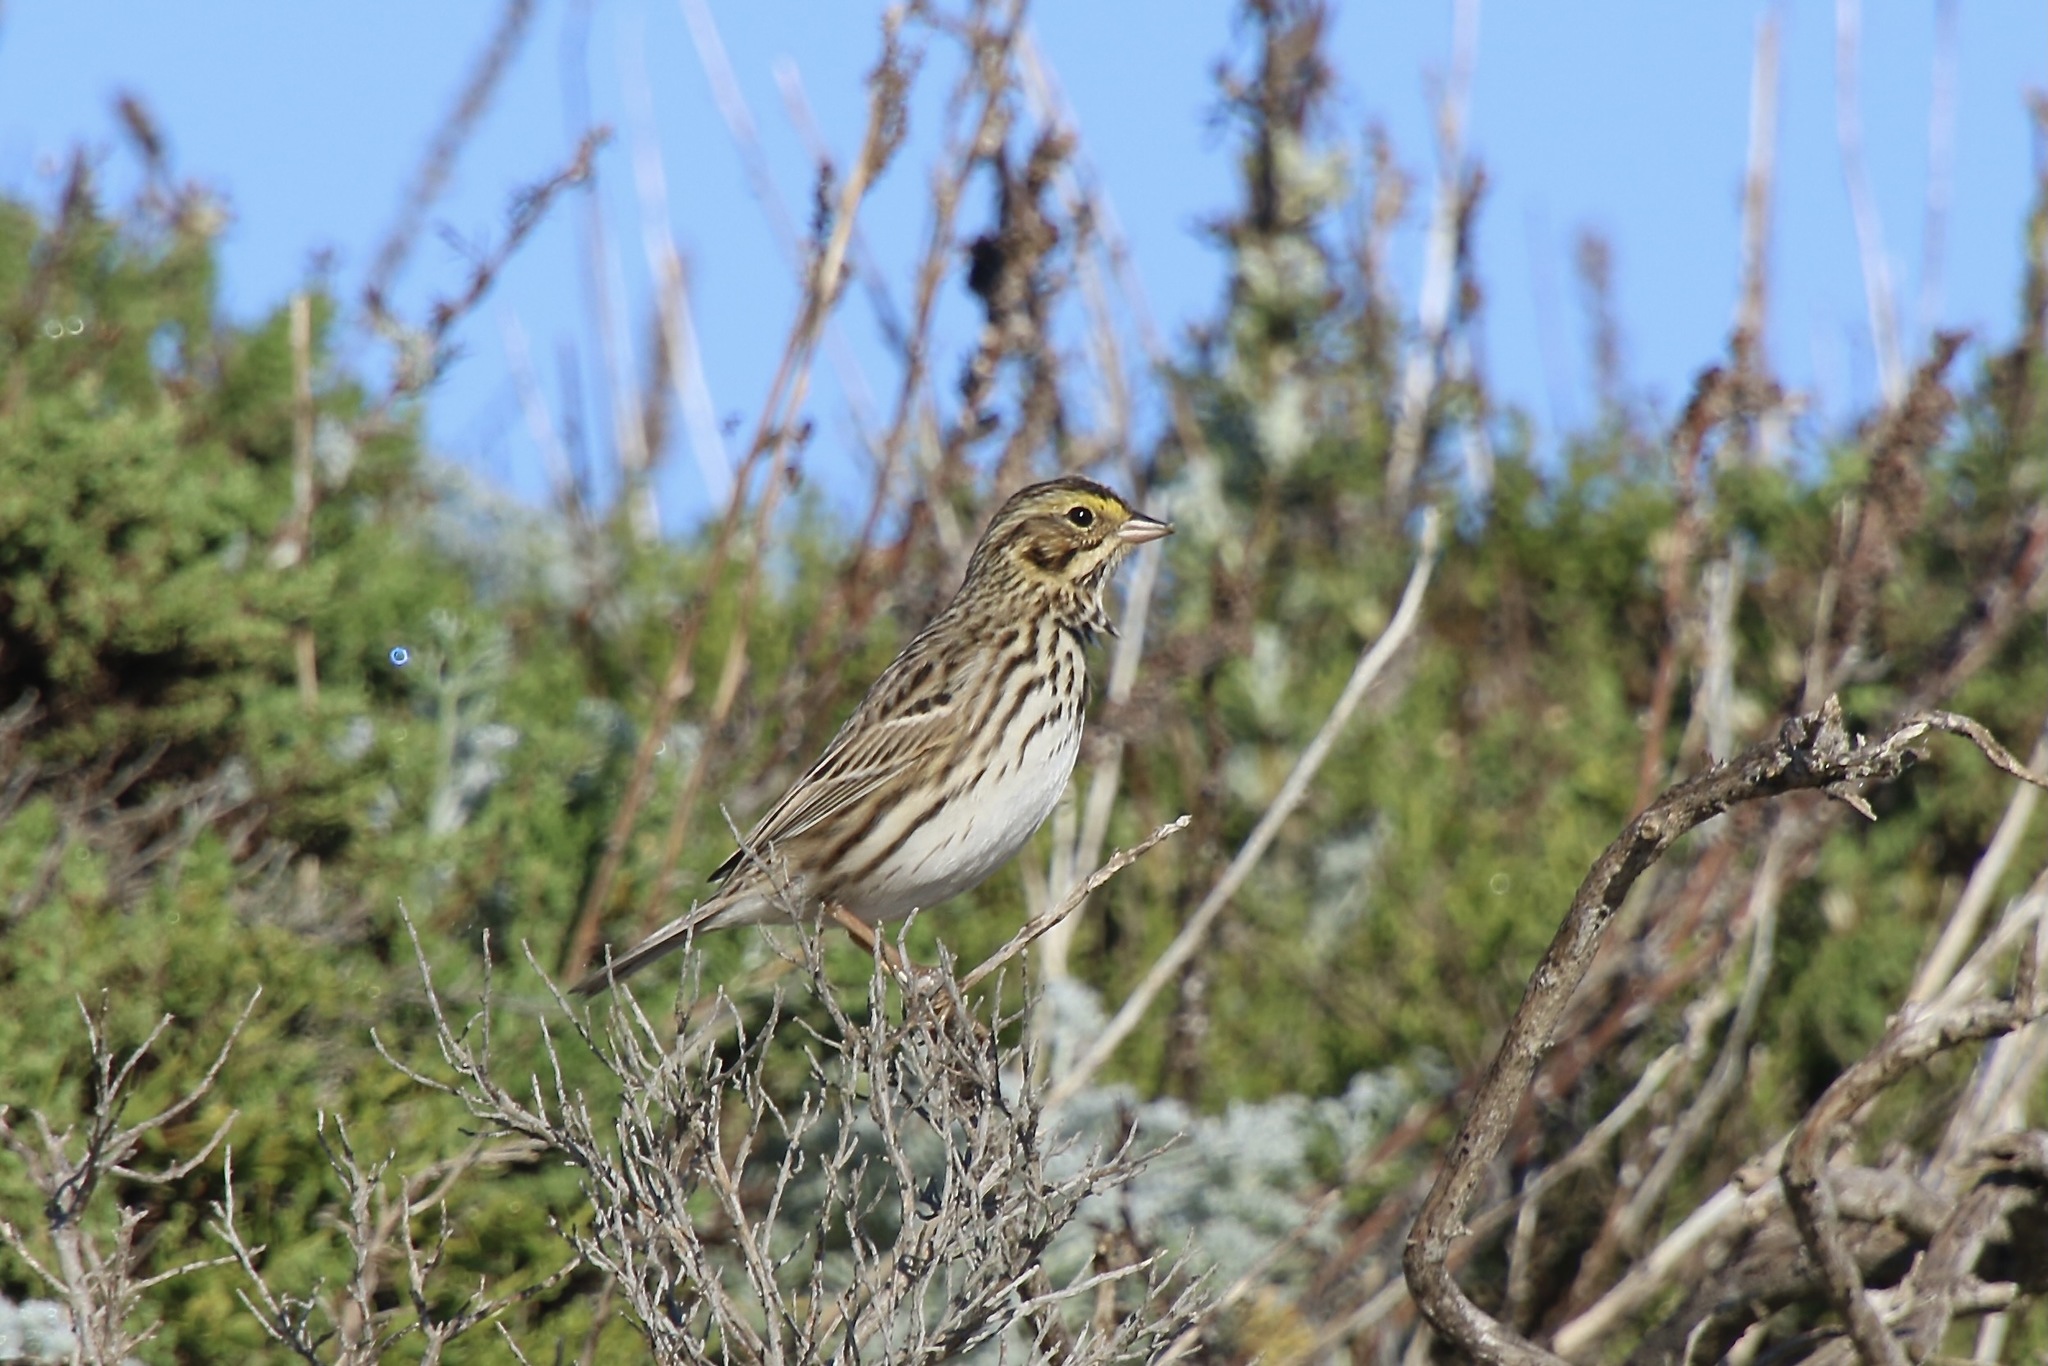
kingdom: Animalia
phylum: Chordata
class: Aves
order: Passeriformes
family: Passerellidae
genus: Passerculus
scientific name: Passerculus sandwichensis
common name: Savannah sparrow
